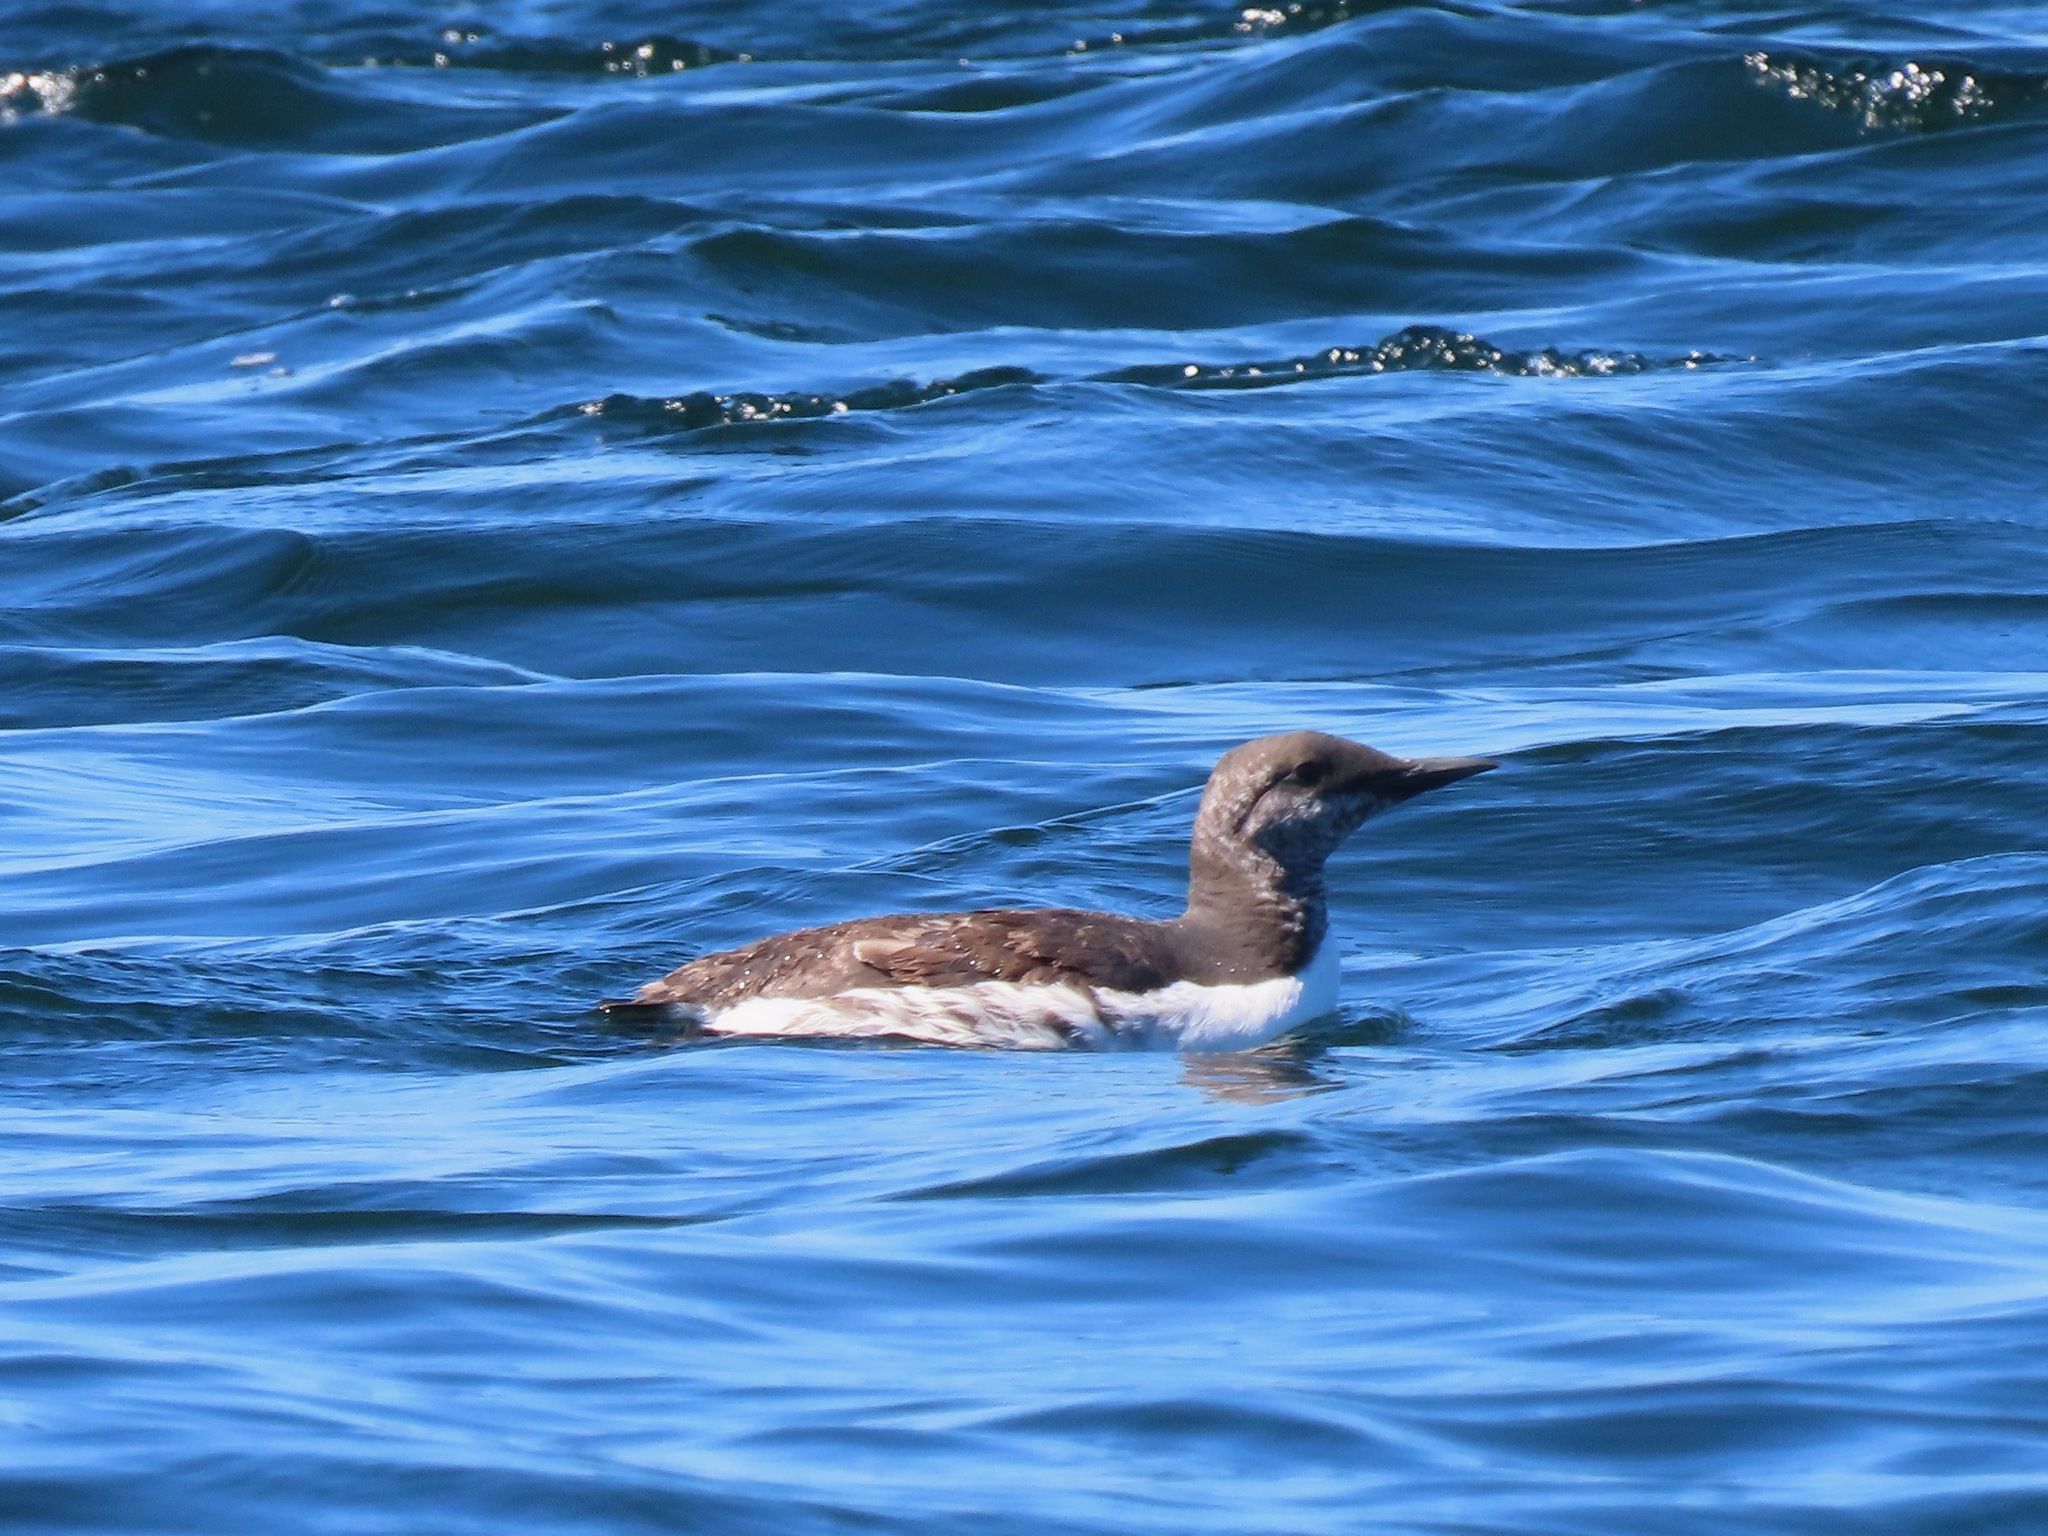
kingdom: Animalia
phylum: Chordata
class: Aves
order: Charadriiformes
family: Alcidae
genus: Uria
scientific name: Uria aalge
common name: Common murre
